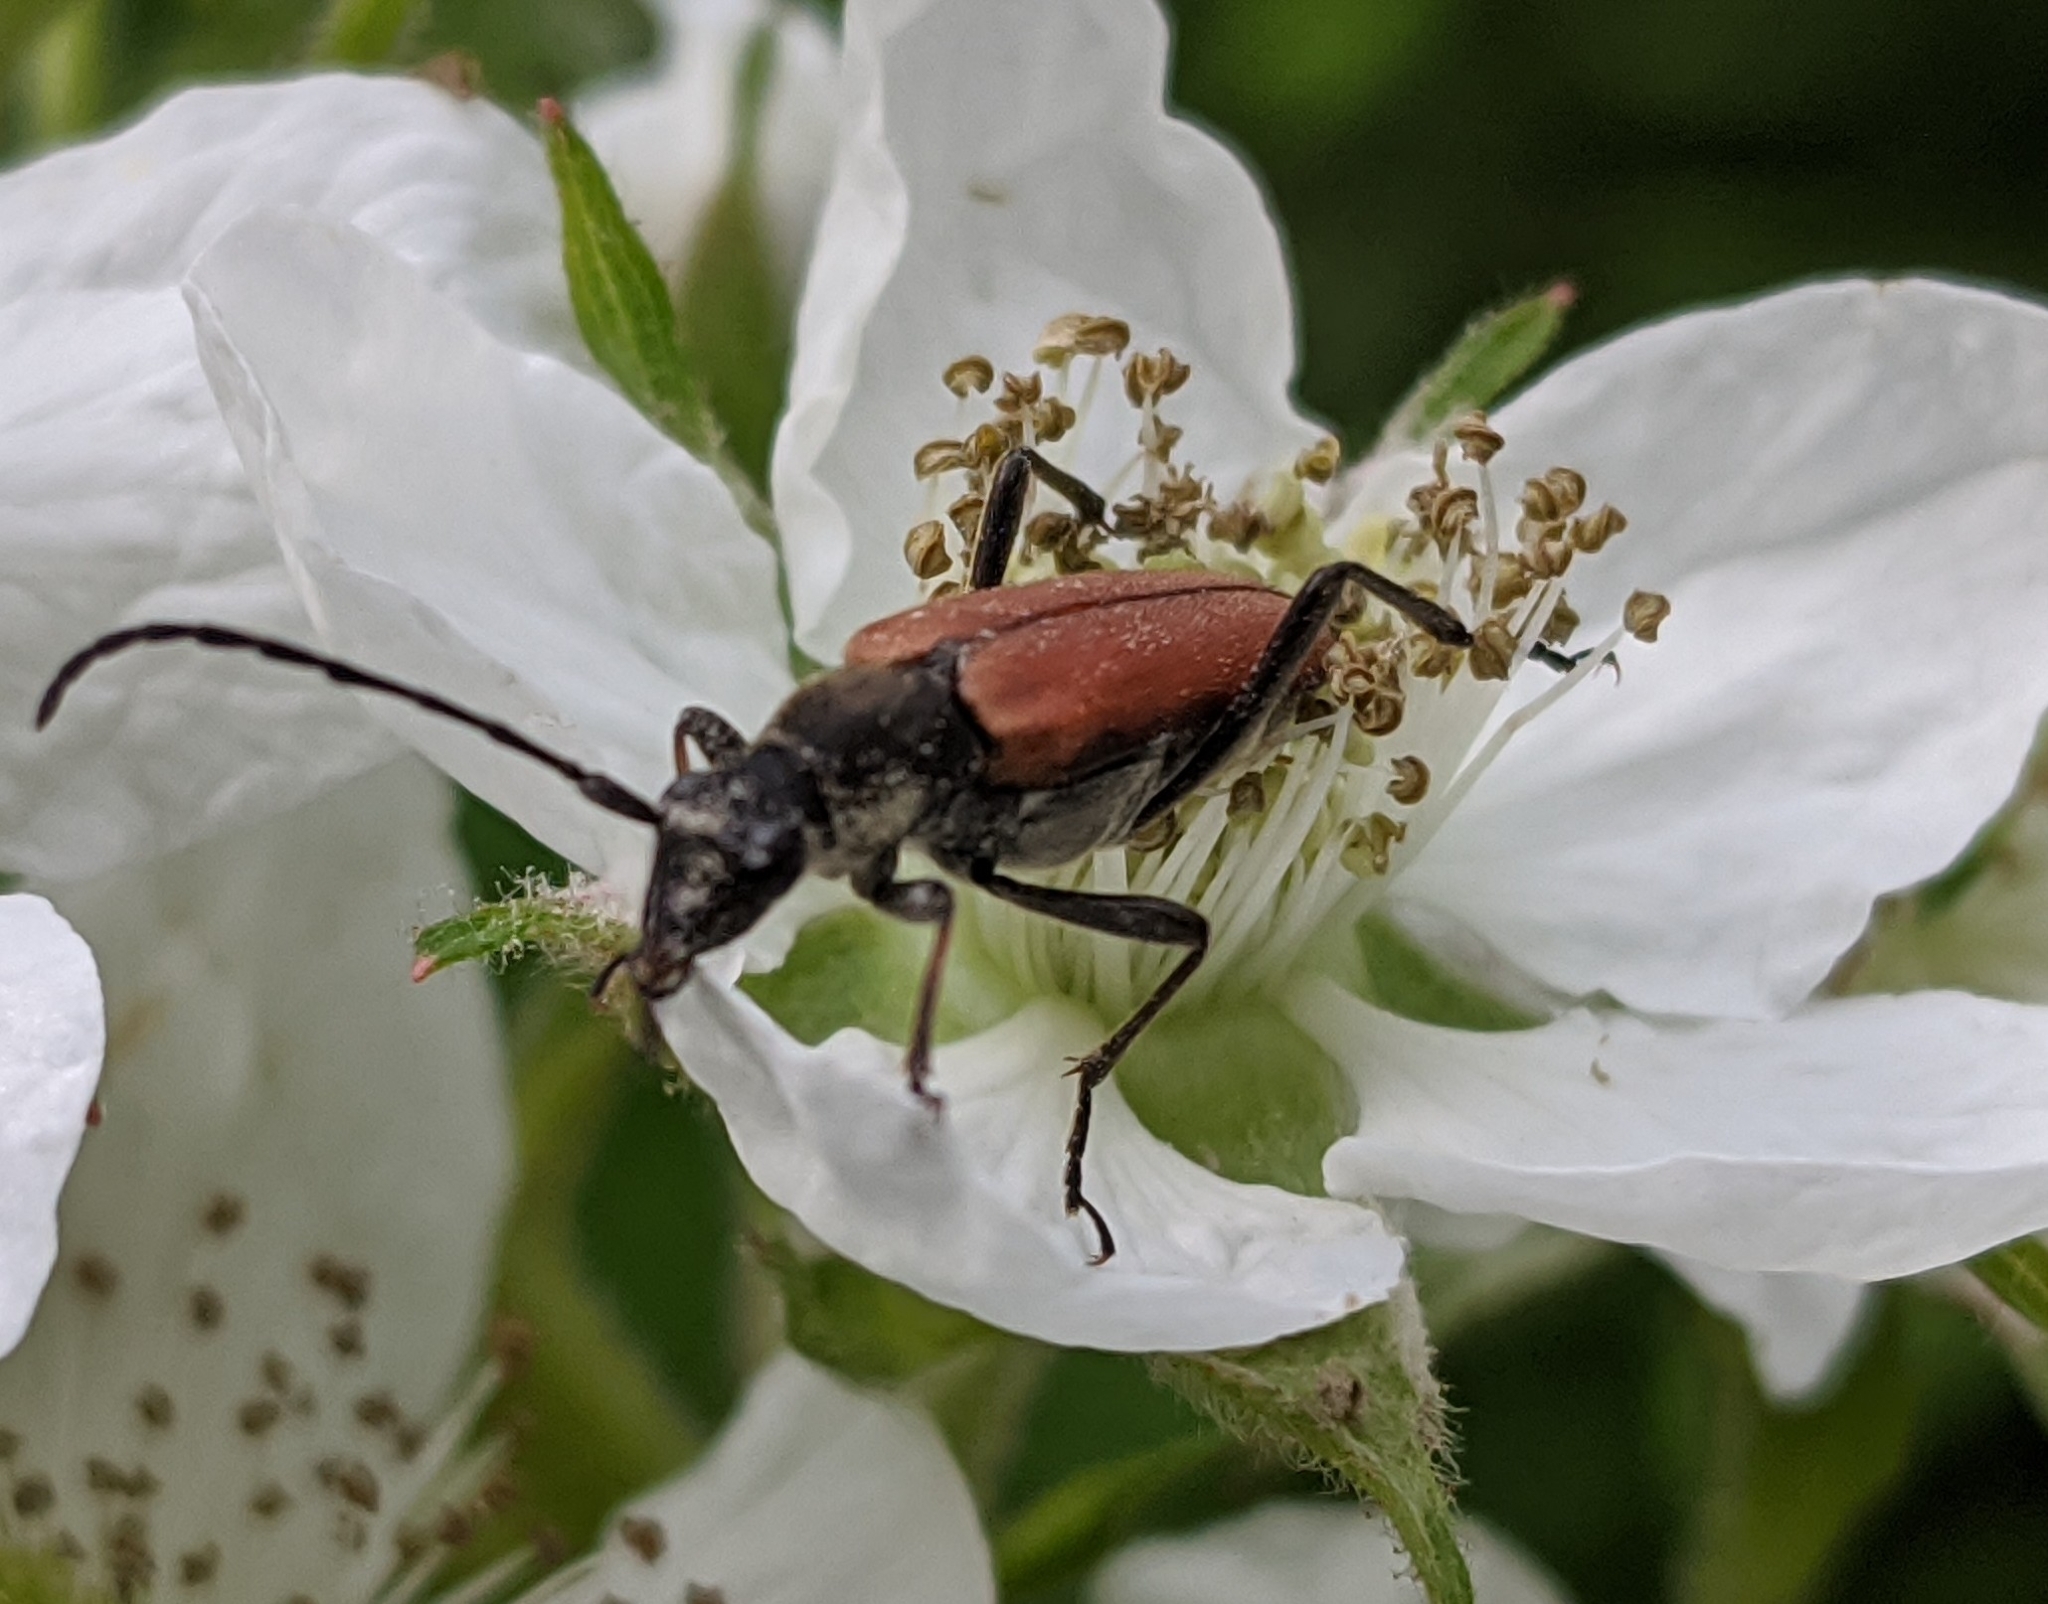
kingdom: Animalia
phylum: Arthropoda
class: Insecta
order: Coleoptera
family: Cerambycidae
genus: Anastrangalia
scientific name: Anastrangalia sanguinolenta
